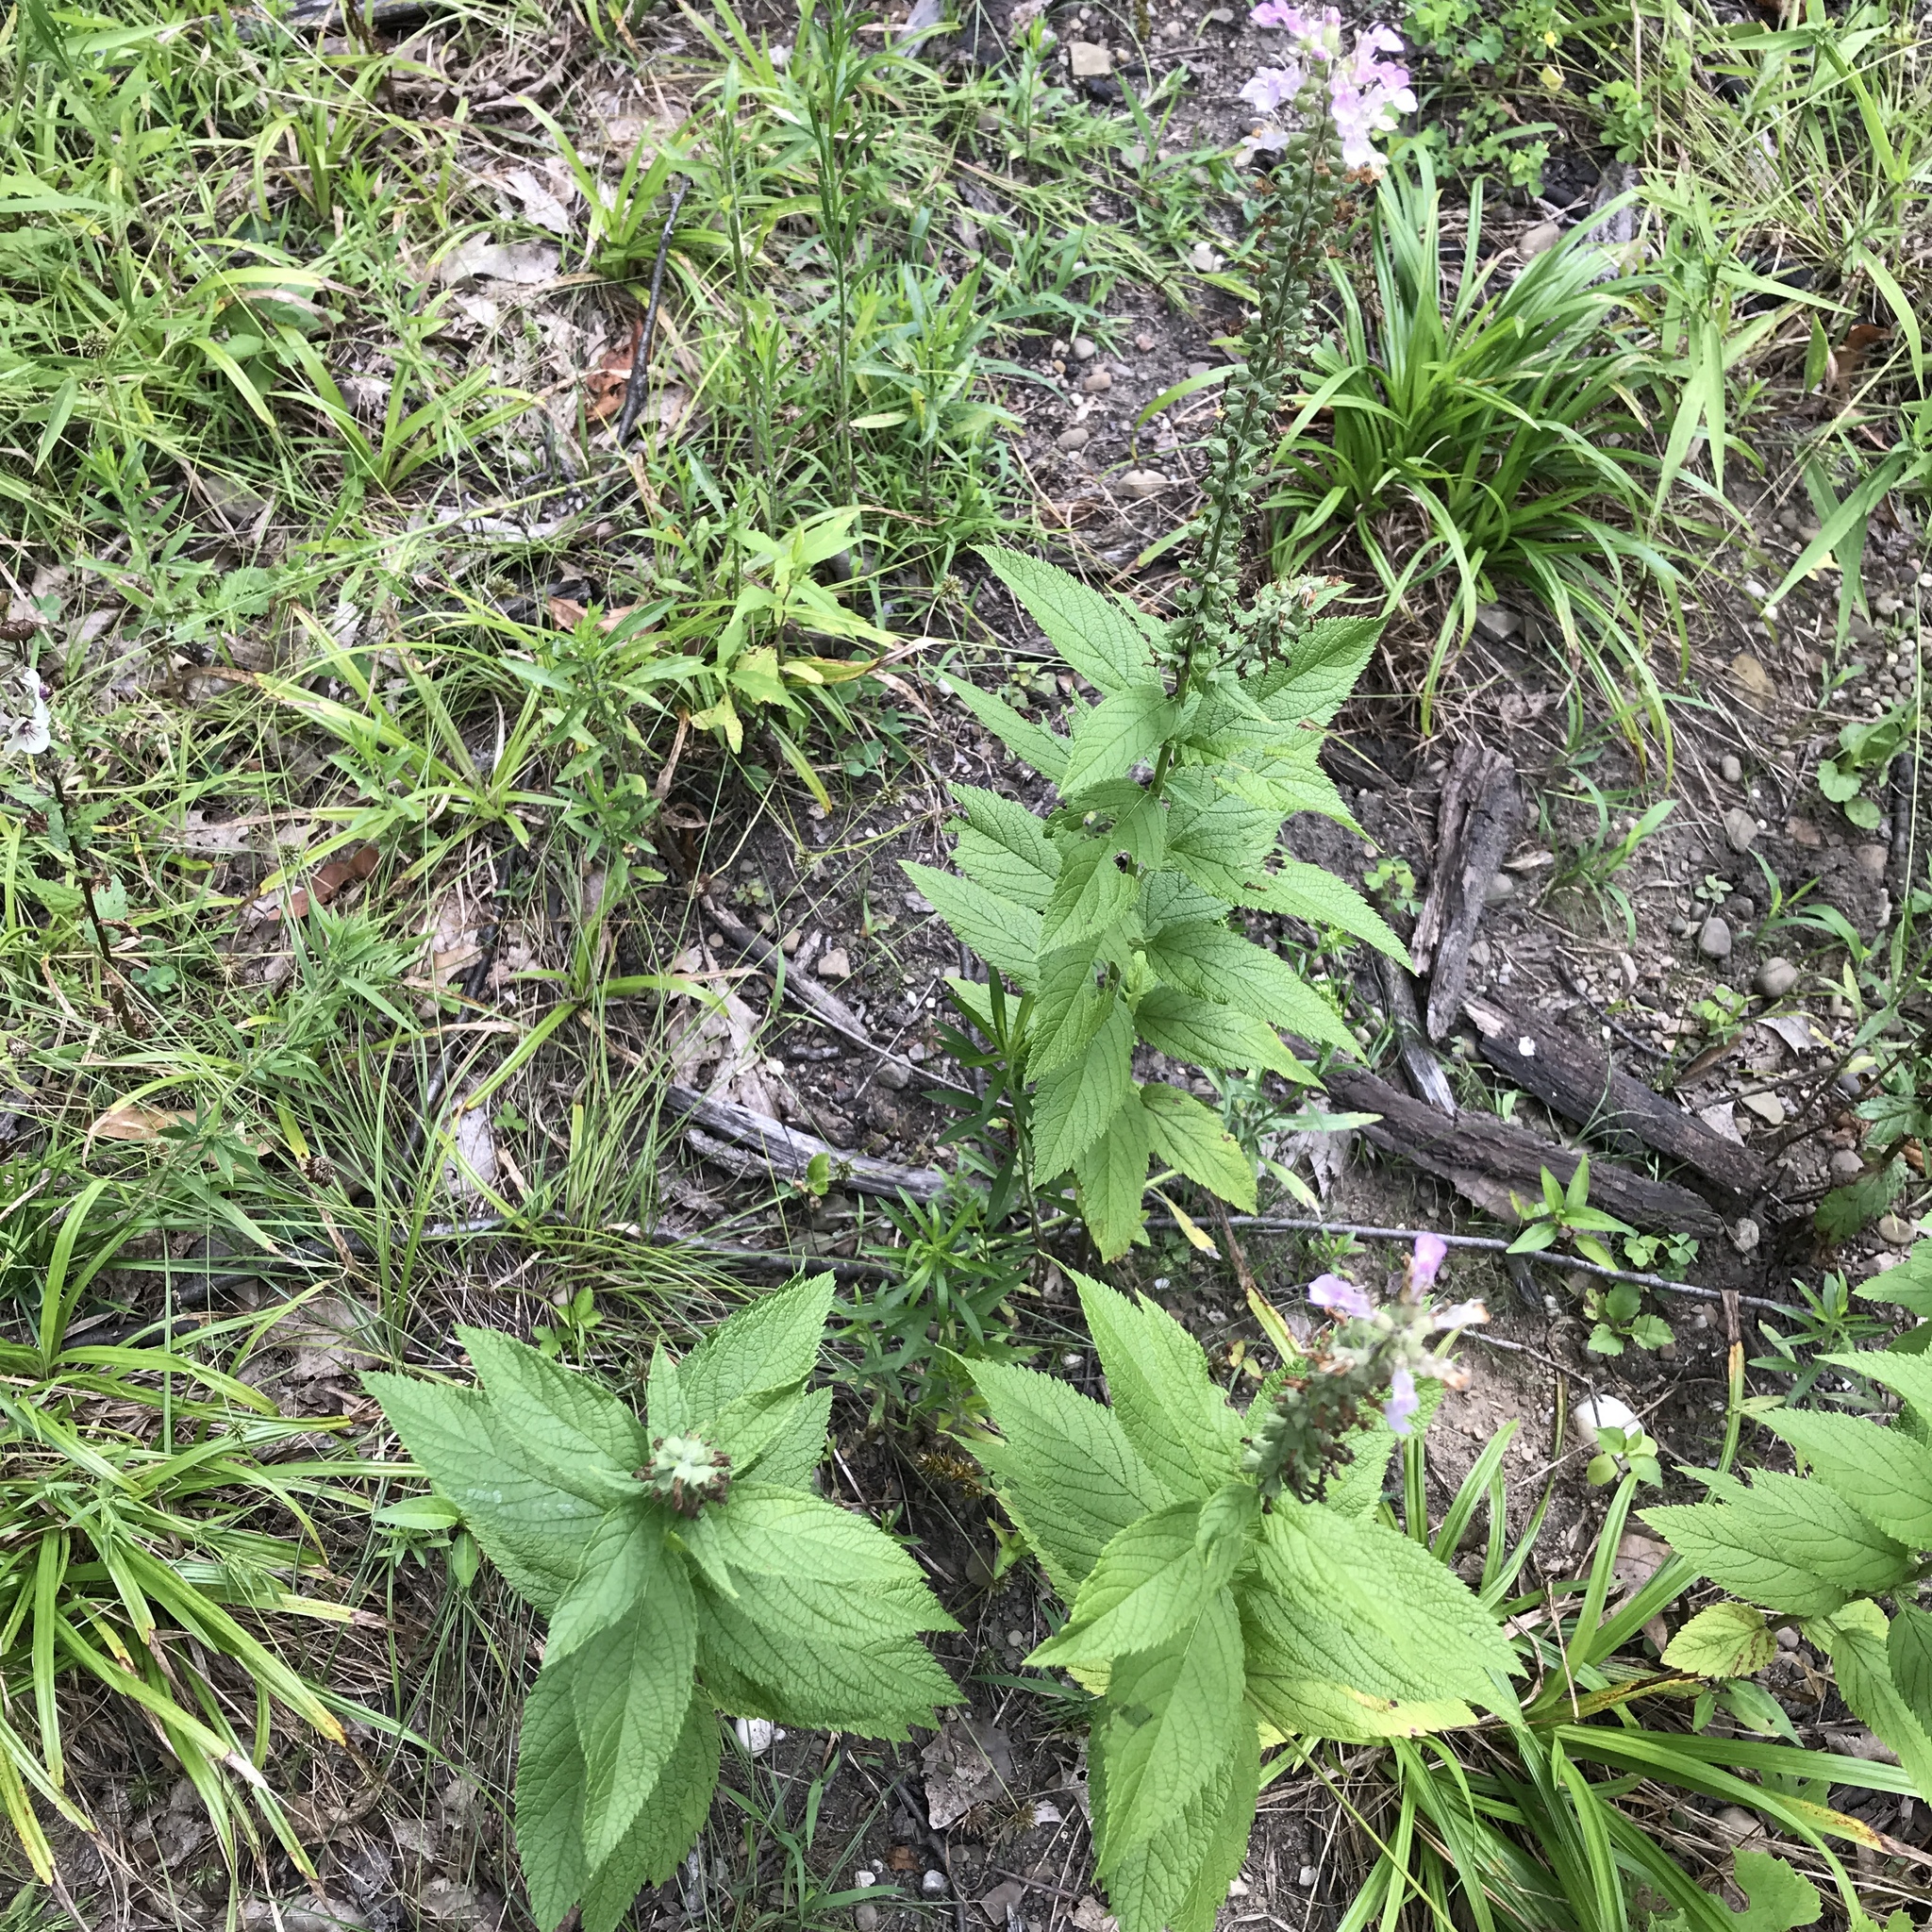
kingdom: Plantae
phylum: Tracheophyta
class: Magnoliopsida
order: Lamiales
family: Lamiaceae
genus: Teucrium
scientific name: Teucrium canadense
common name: American germander
